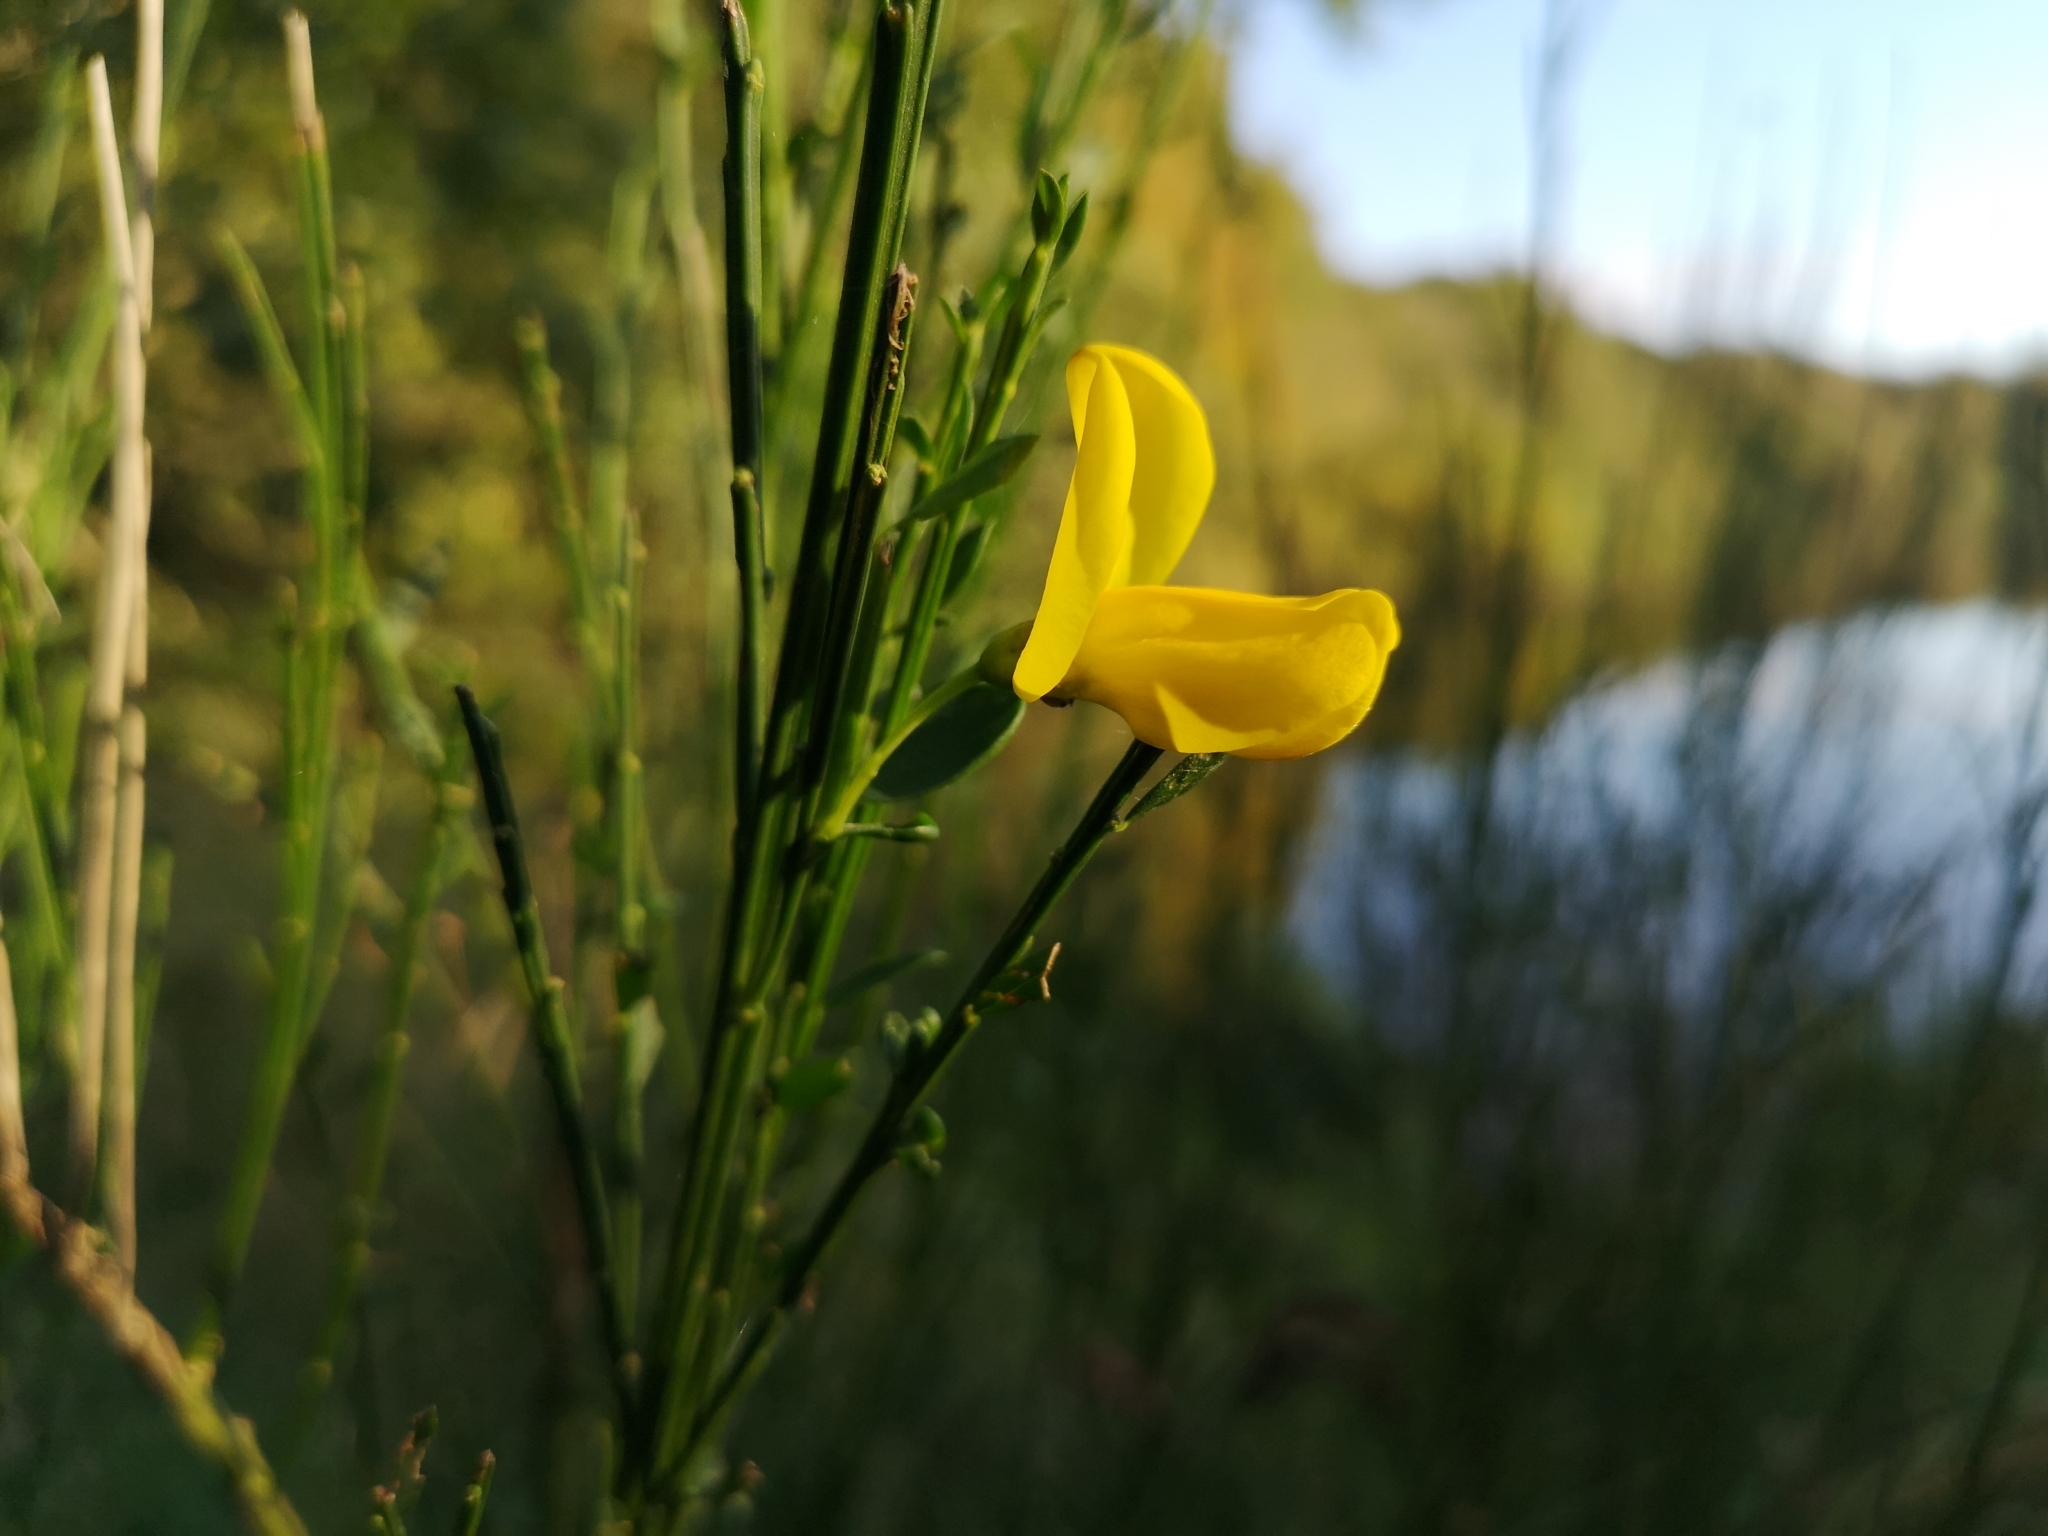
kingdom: Plantae
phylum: Tracheophyta
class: Magnoliopsida
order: Fabales
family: Fabaceae
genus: Cytisus
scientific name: Cytisus scoparius
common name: Scotch broom
